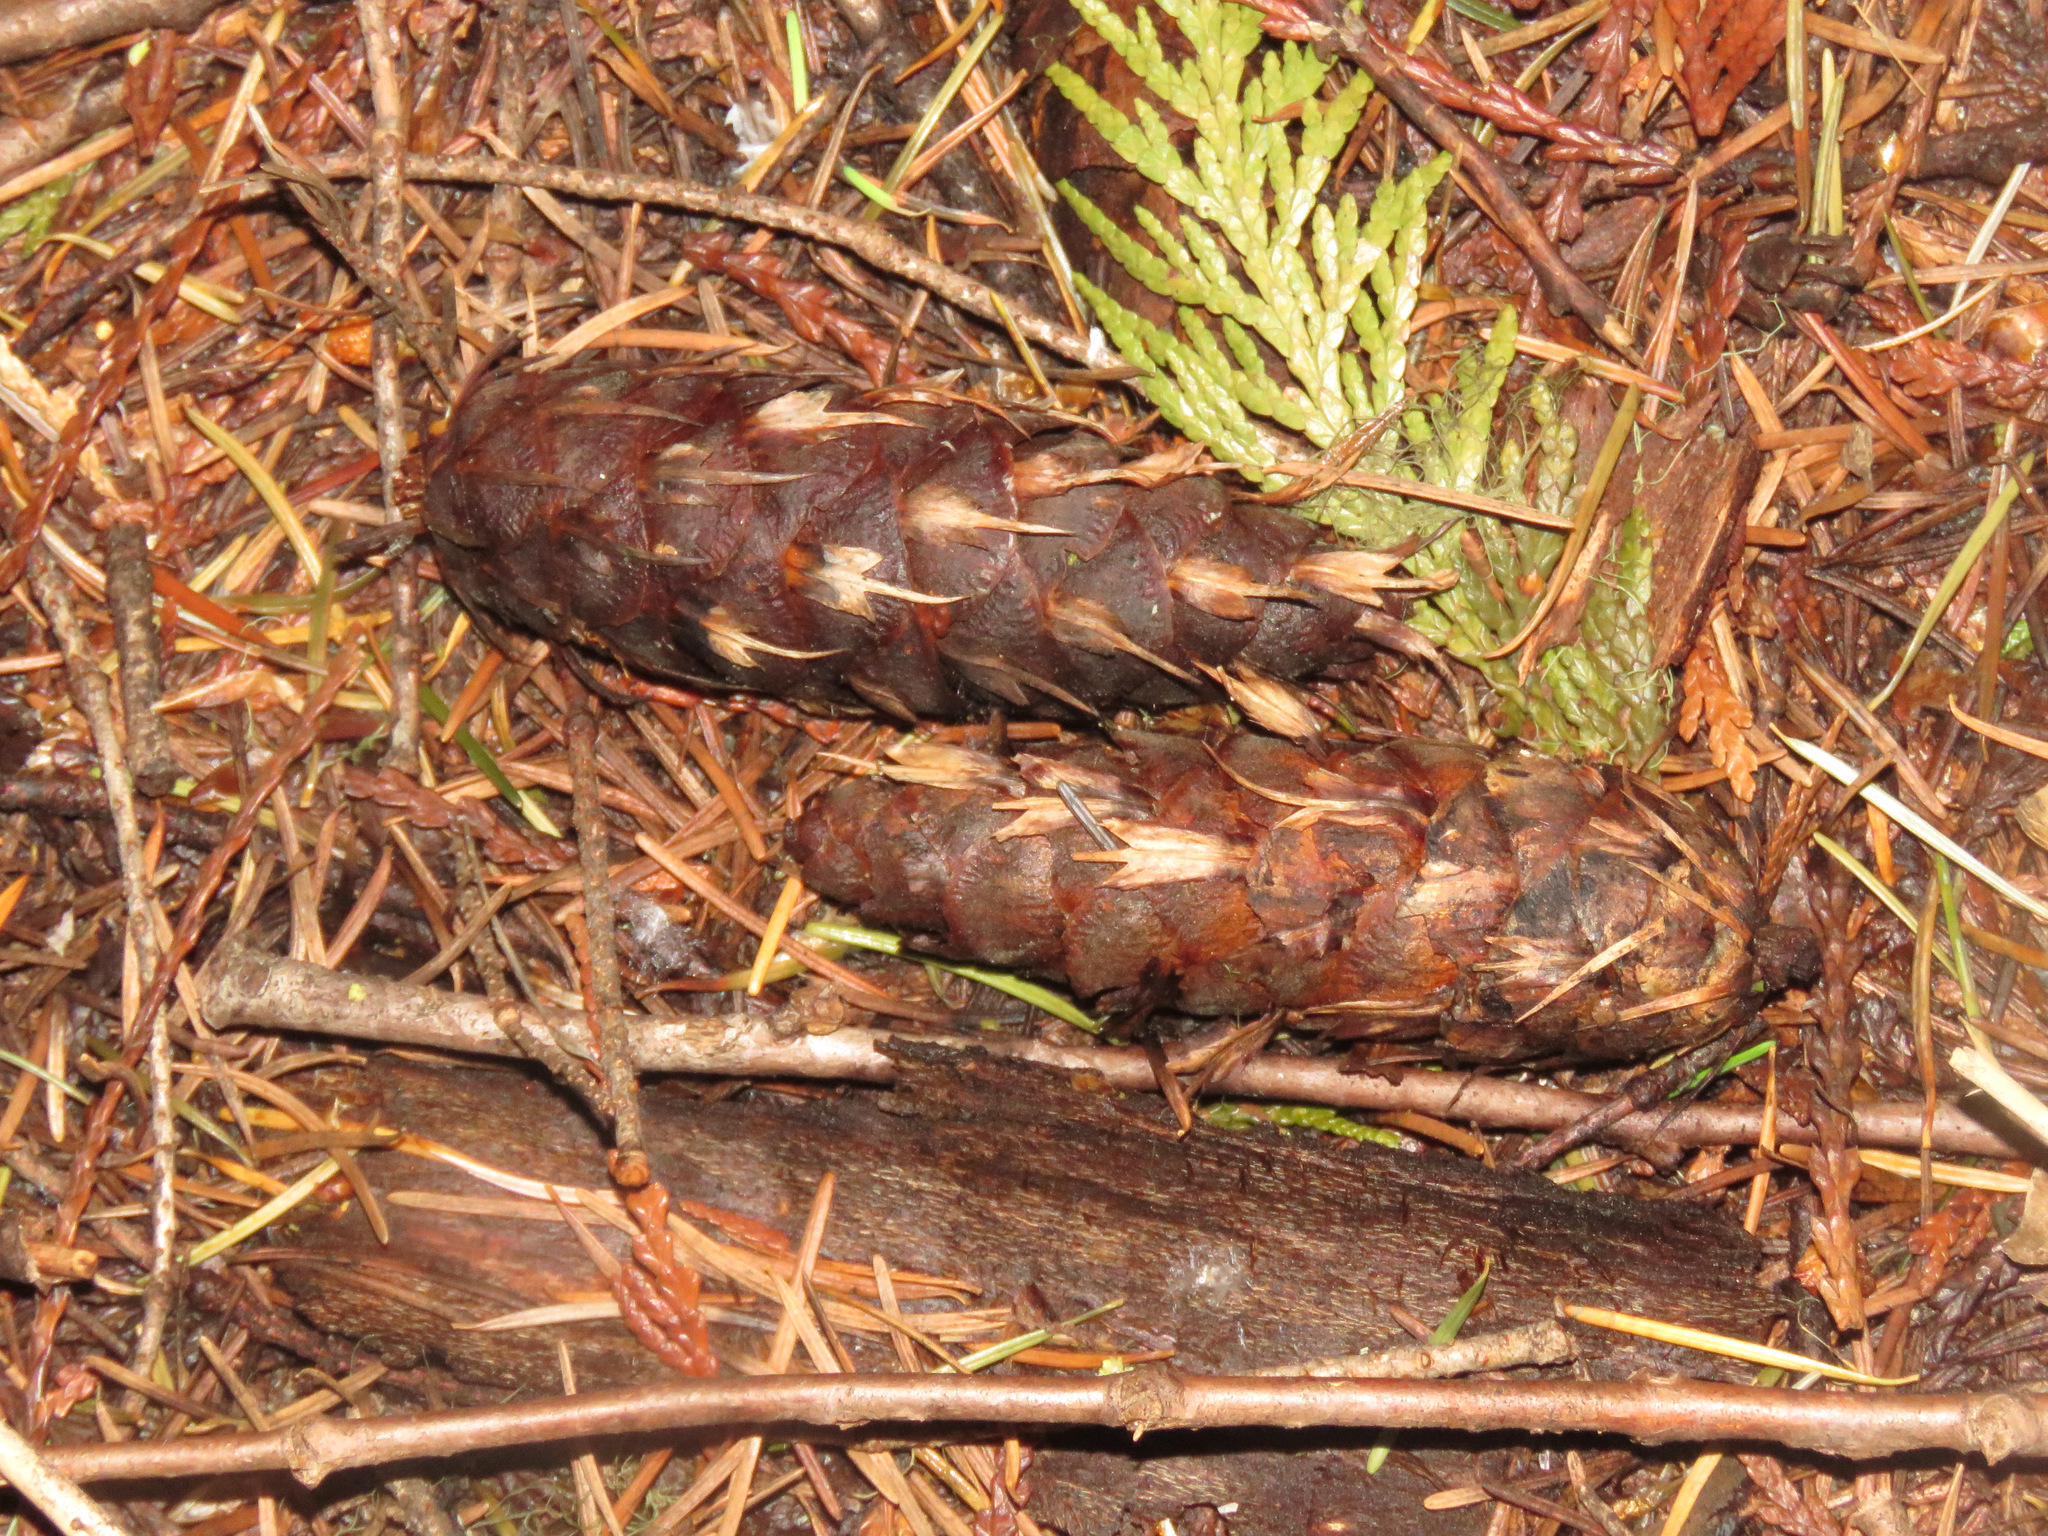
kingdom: Plantae
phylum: Tracheophyta
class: Pinopsida
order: Pinales
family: Pinaceae
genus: Pseudotsuga
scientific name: Pseudotsuga menziesii
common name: Douglas fir
